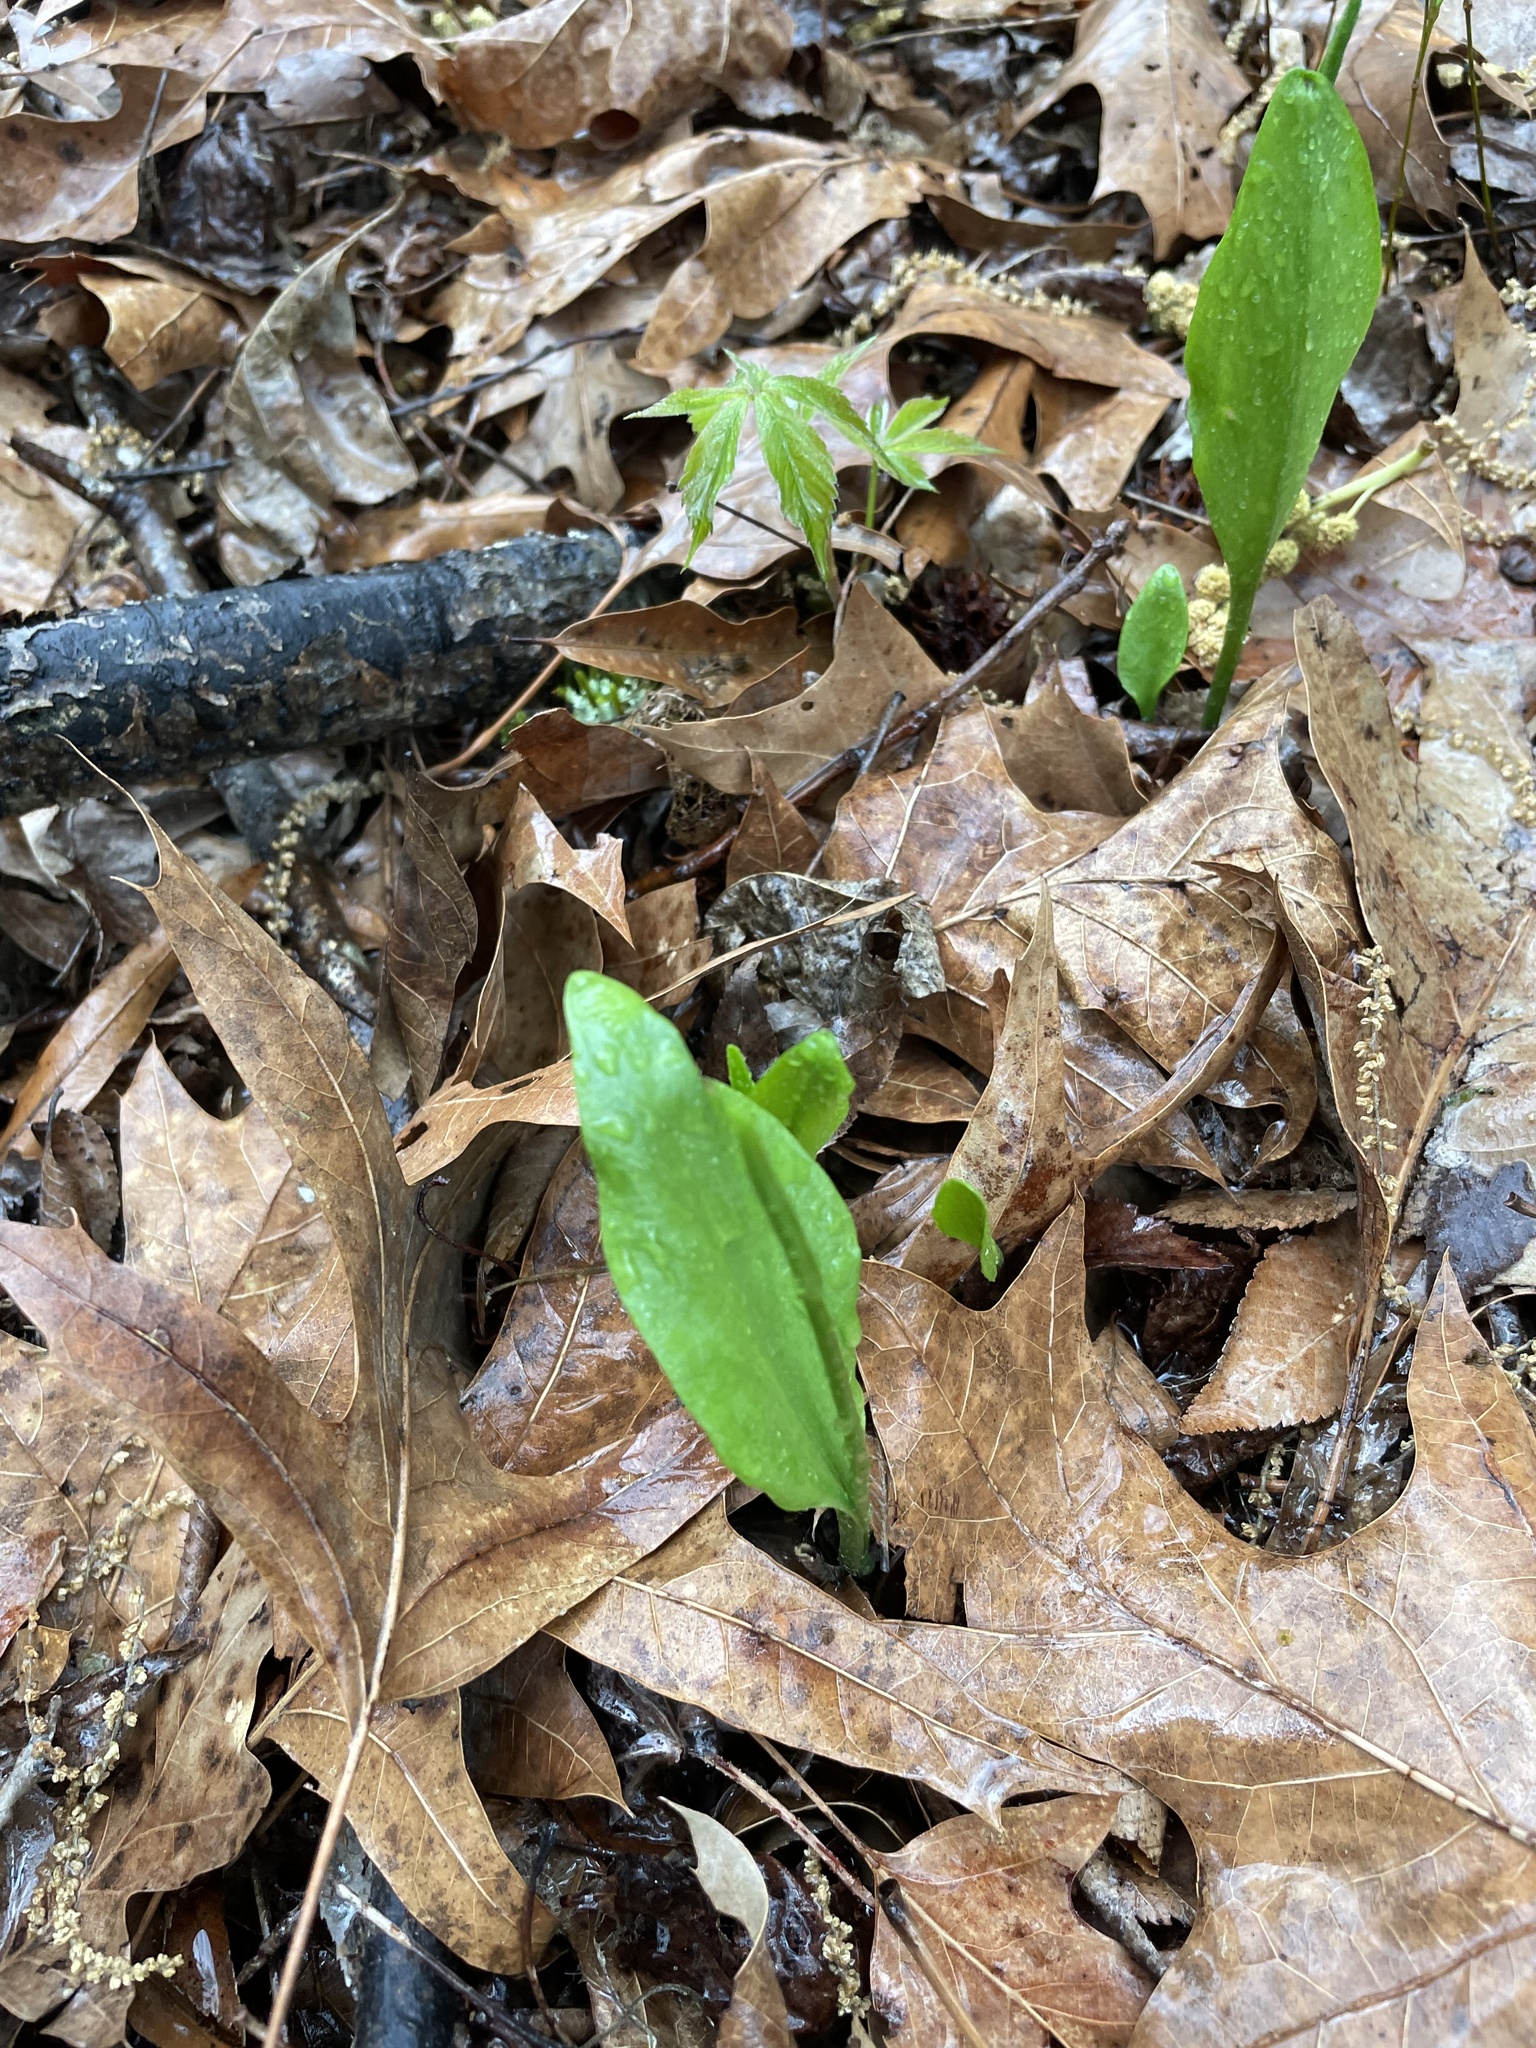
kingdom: Plantae
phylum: Tracheophyta
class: Polypodiopsida
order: Ophioglossales
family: Ophioglossaceae
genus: Ophioglossum
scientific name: Ophioglossum vulgatum
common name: Adder's-tongue
